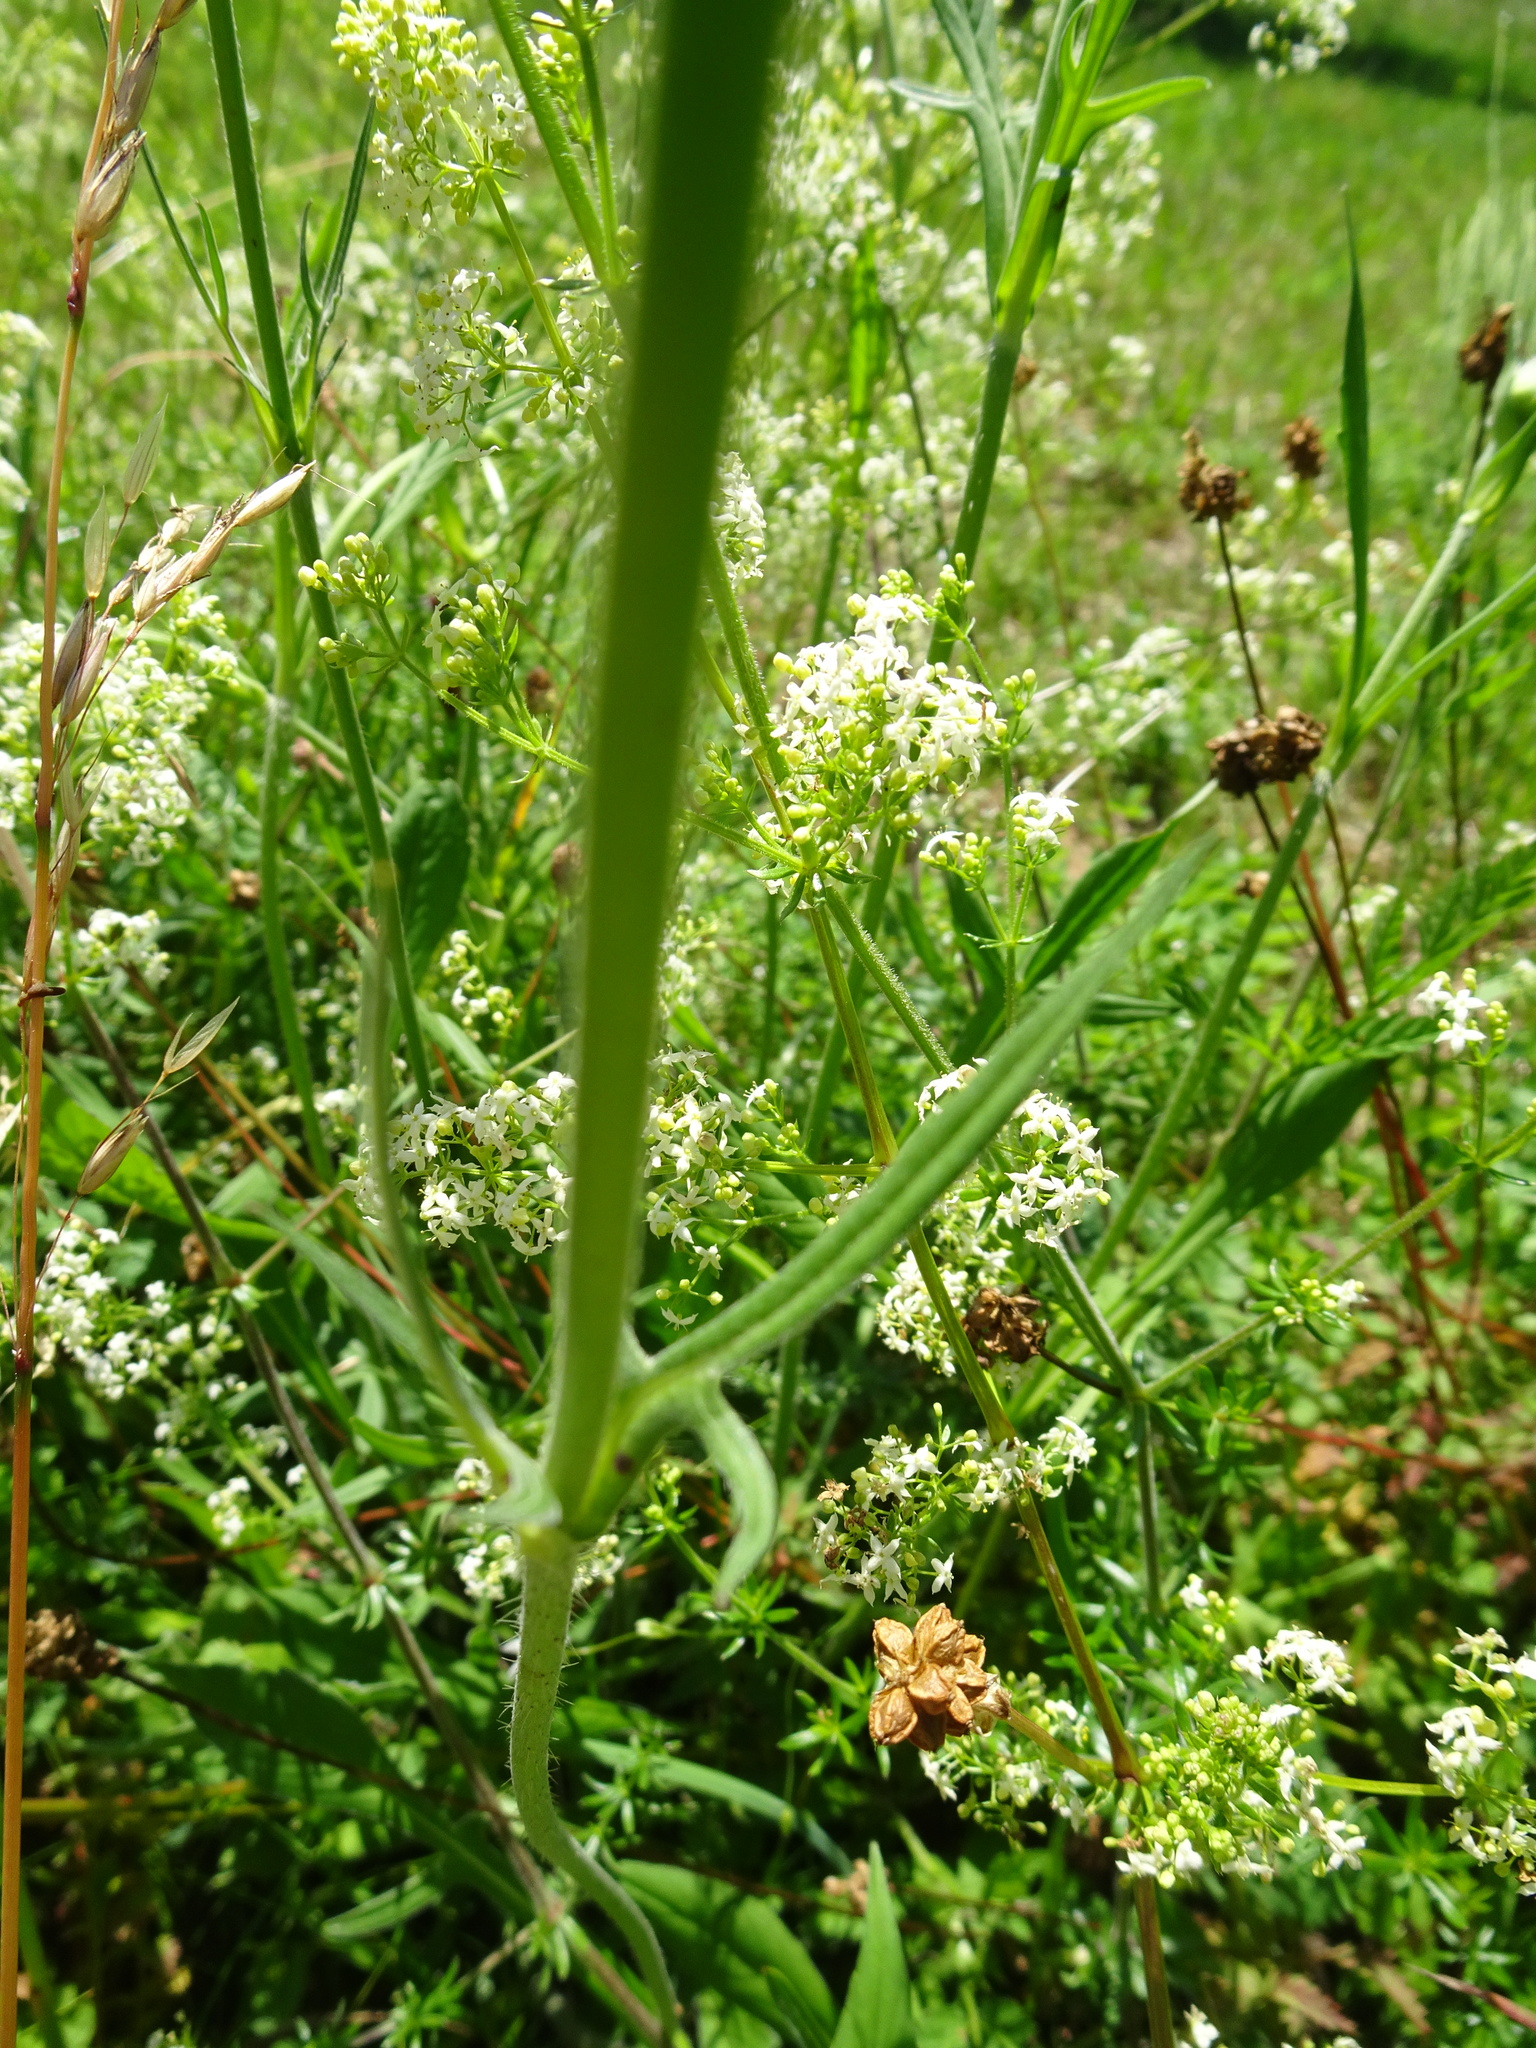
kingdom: Plantae
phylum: Tracheophyta
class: Magnoliopsida
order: Dipsacales
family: Caprifoliaceae
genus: Knautia
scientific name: Knautia arvensis
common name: Field scabiosa
